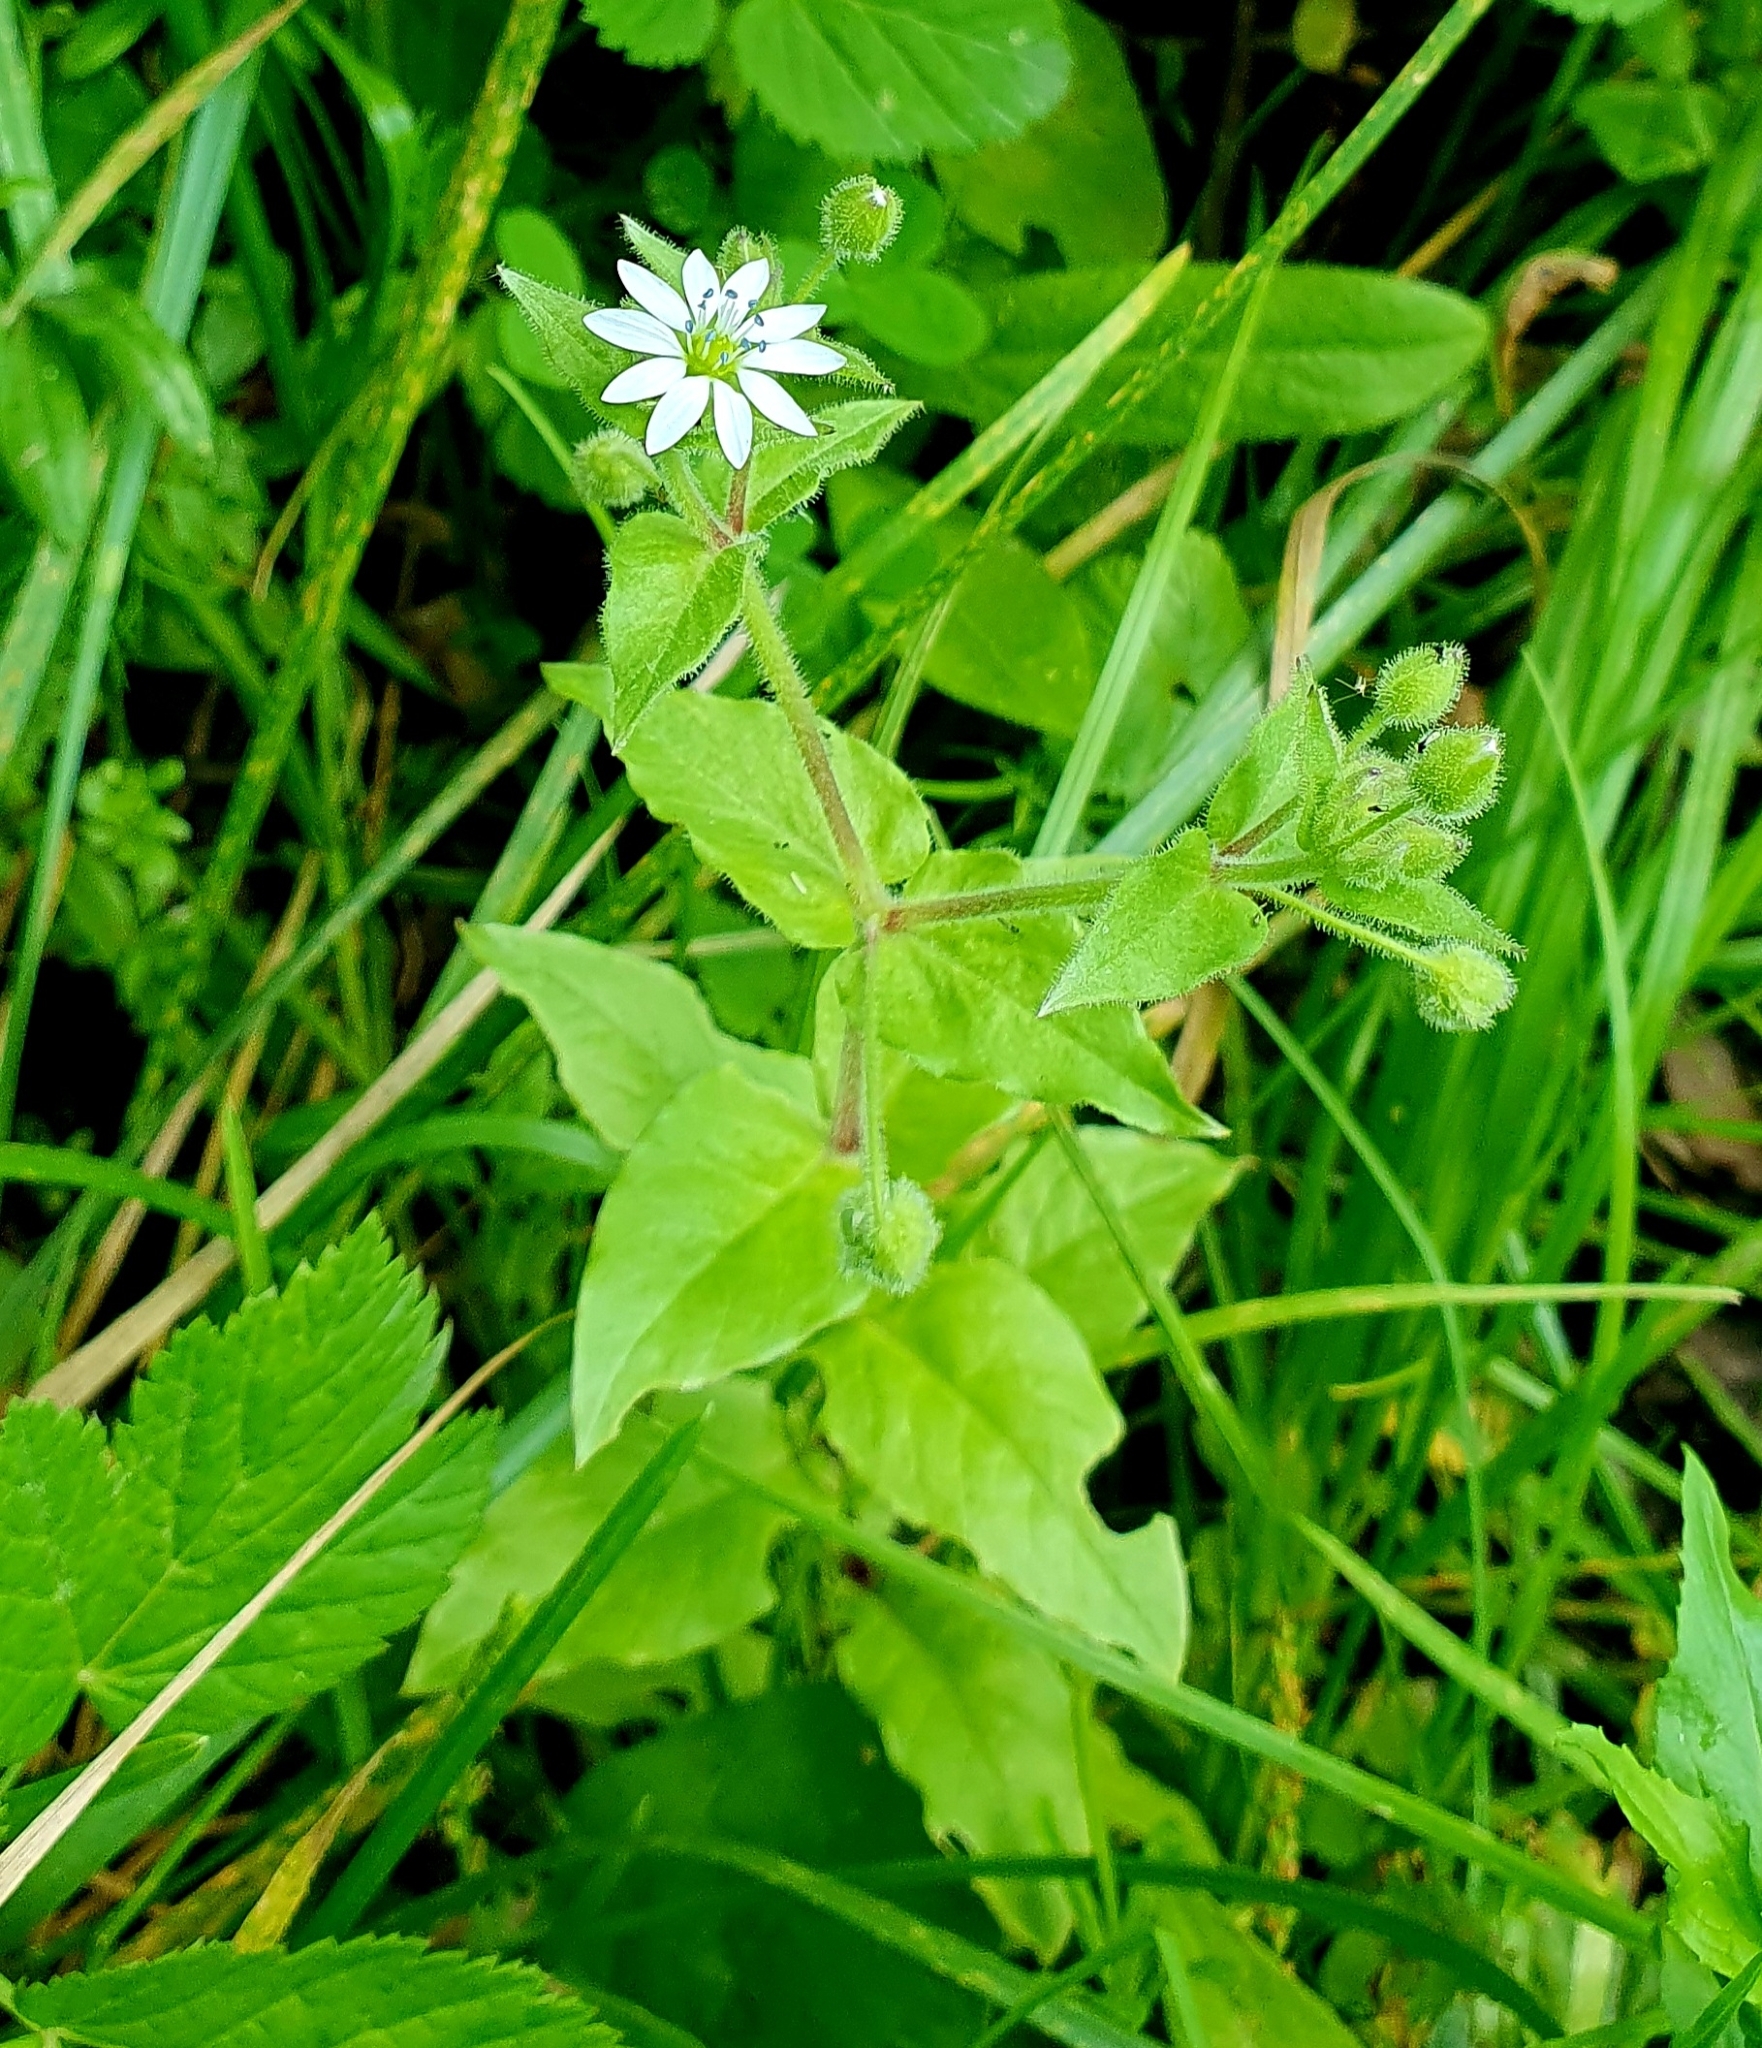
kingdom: Plantae
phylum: Tracheophyta
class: Magnoliopsida
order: Caryophyllales
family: Caryophyllaceae
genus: Stellaria
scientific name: Stellaria aquatica
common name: Water chickweed
